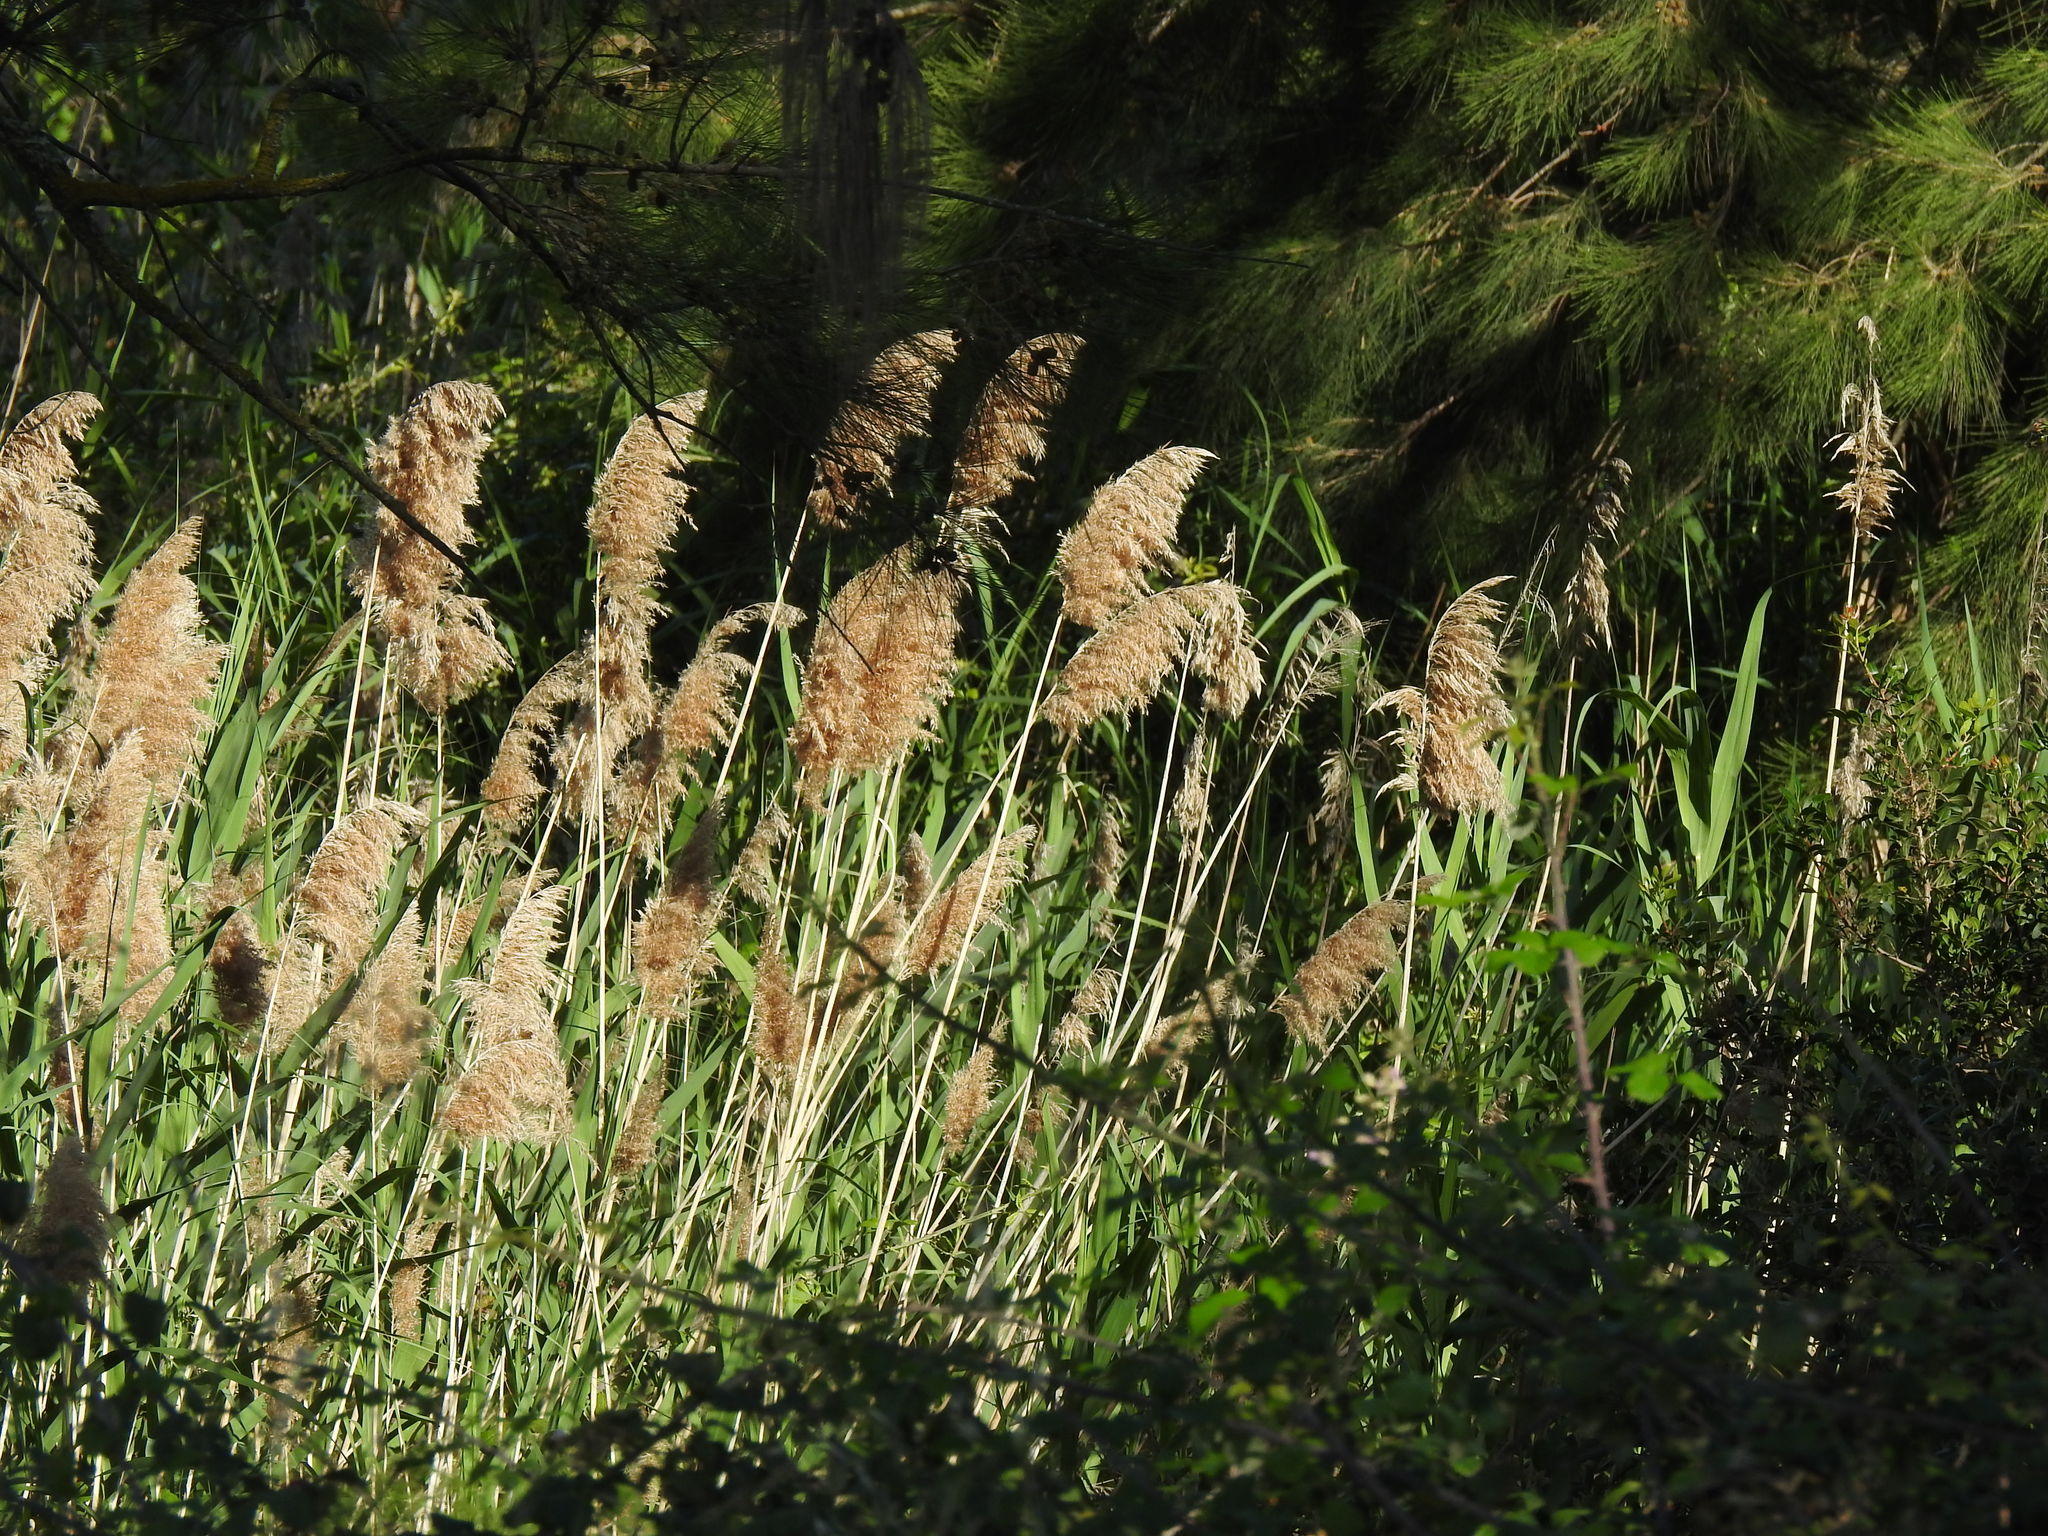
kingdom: Plantae
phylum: Tracheophyta
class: Liliopsida
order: Poales
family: Poaceae
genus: Phragmites
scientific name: Phragmites australis
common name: Common reed
